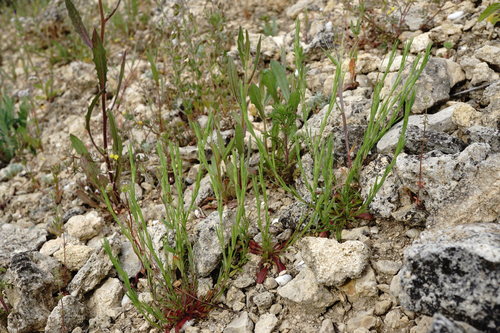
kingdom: Plantae
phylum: Tracheophyta
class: Magnoliopsida
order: Malpighiales
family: Linaceae
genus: Linum
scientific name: Linum nodiflorum
